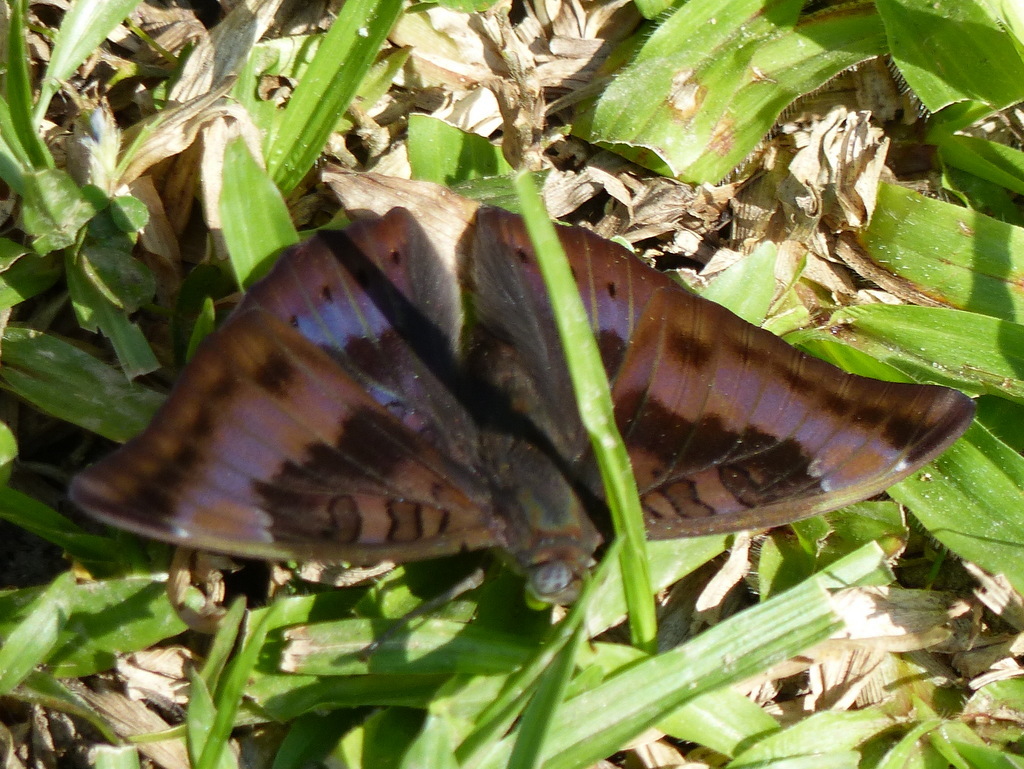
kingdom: Animalia
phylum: Arthropoda
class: Insecta
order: Lepidoptera
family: Nymphalidae
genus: Euthalia
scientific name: Euthalia aconthea
